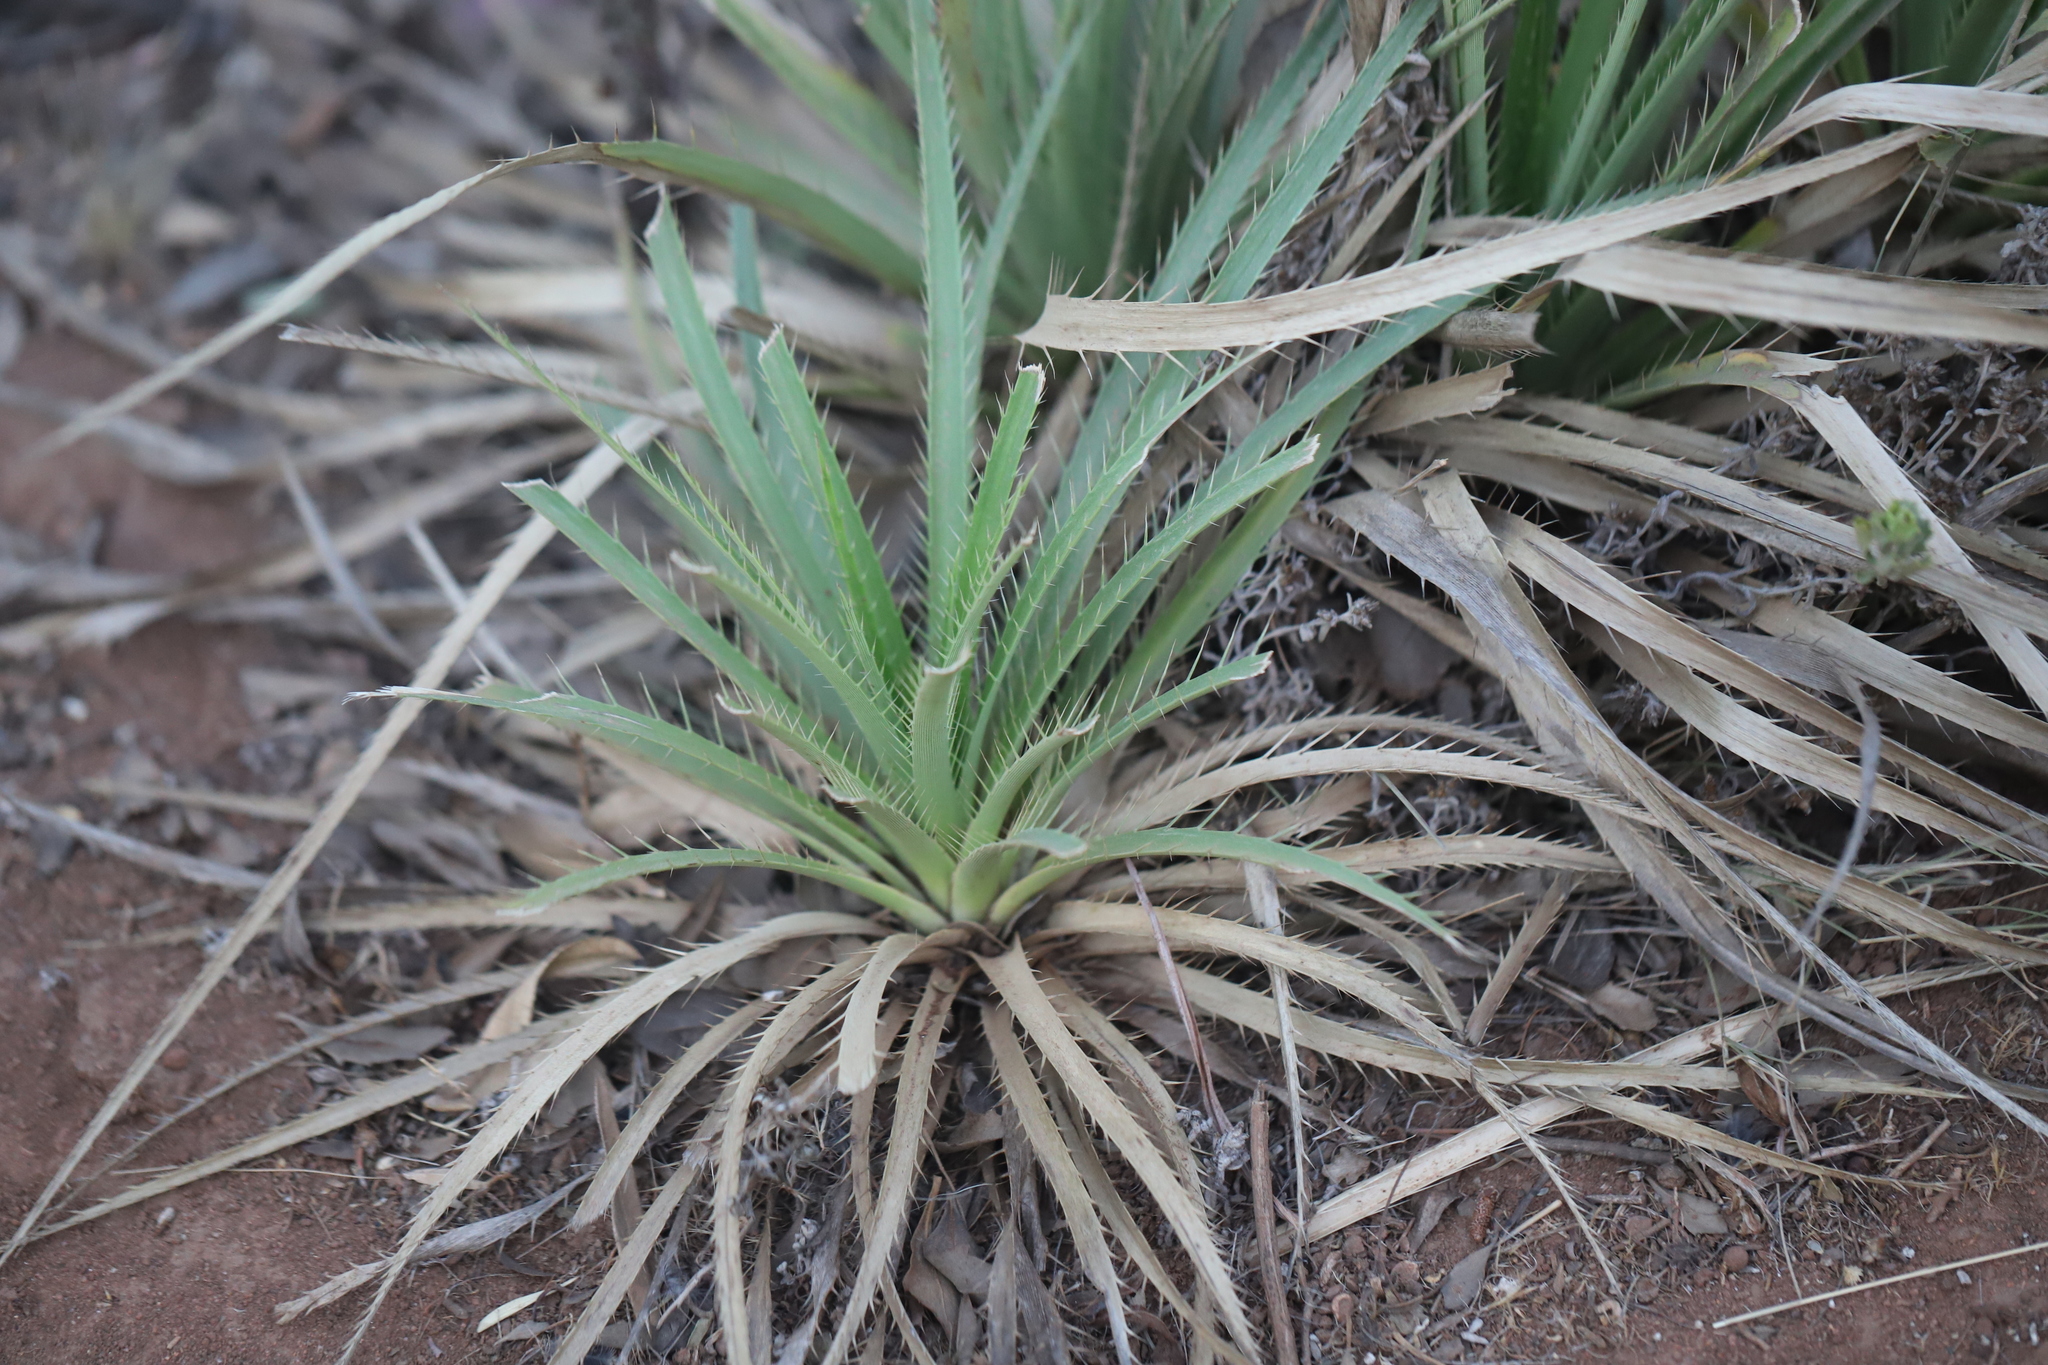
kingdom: Plantae
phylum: Tracheophyta
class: Magnoliopsida
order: Apiales
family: Apiaceae
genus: Eryngium
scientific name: Eryngium humboldtii
